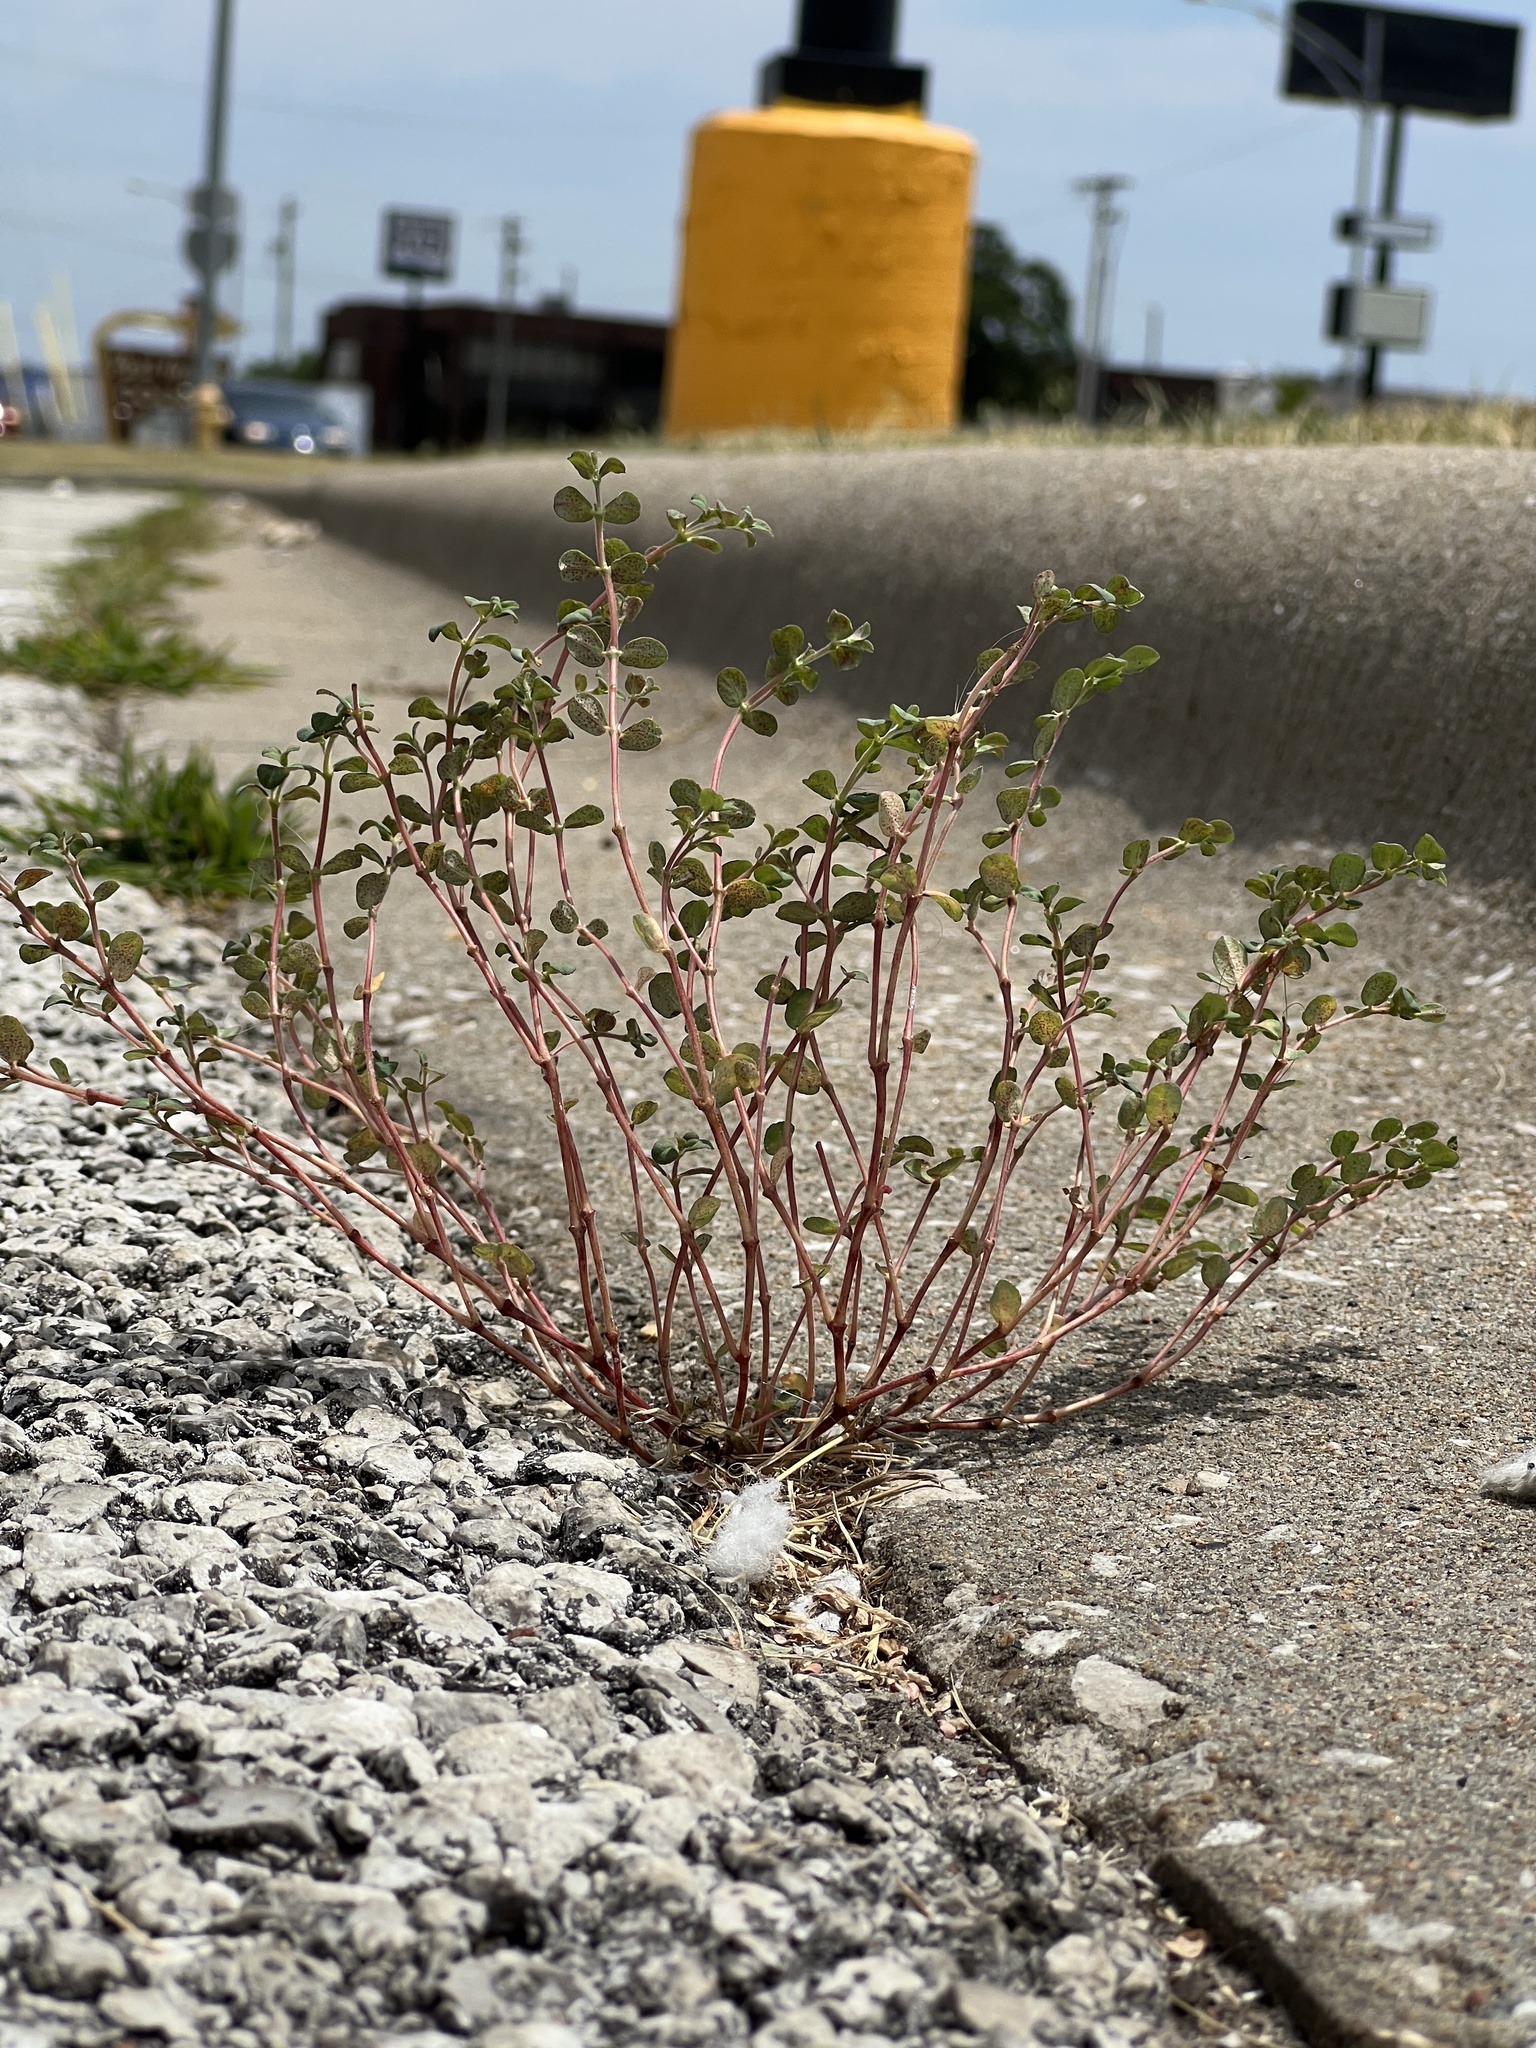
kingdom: Plantae
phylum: Tracheophyta
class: Magnoliopsida
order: Malpighiales
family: Euphorbiaceae
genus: Euphorbia
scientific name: Euphorbia prostrata
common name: Prostrate sandmat
